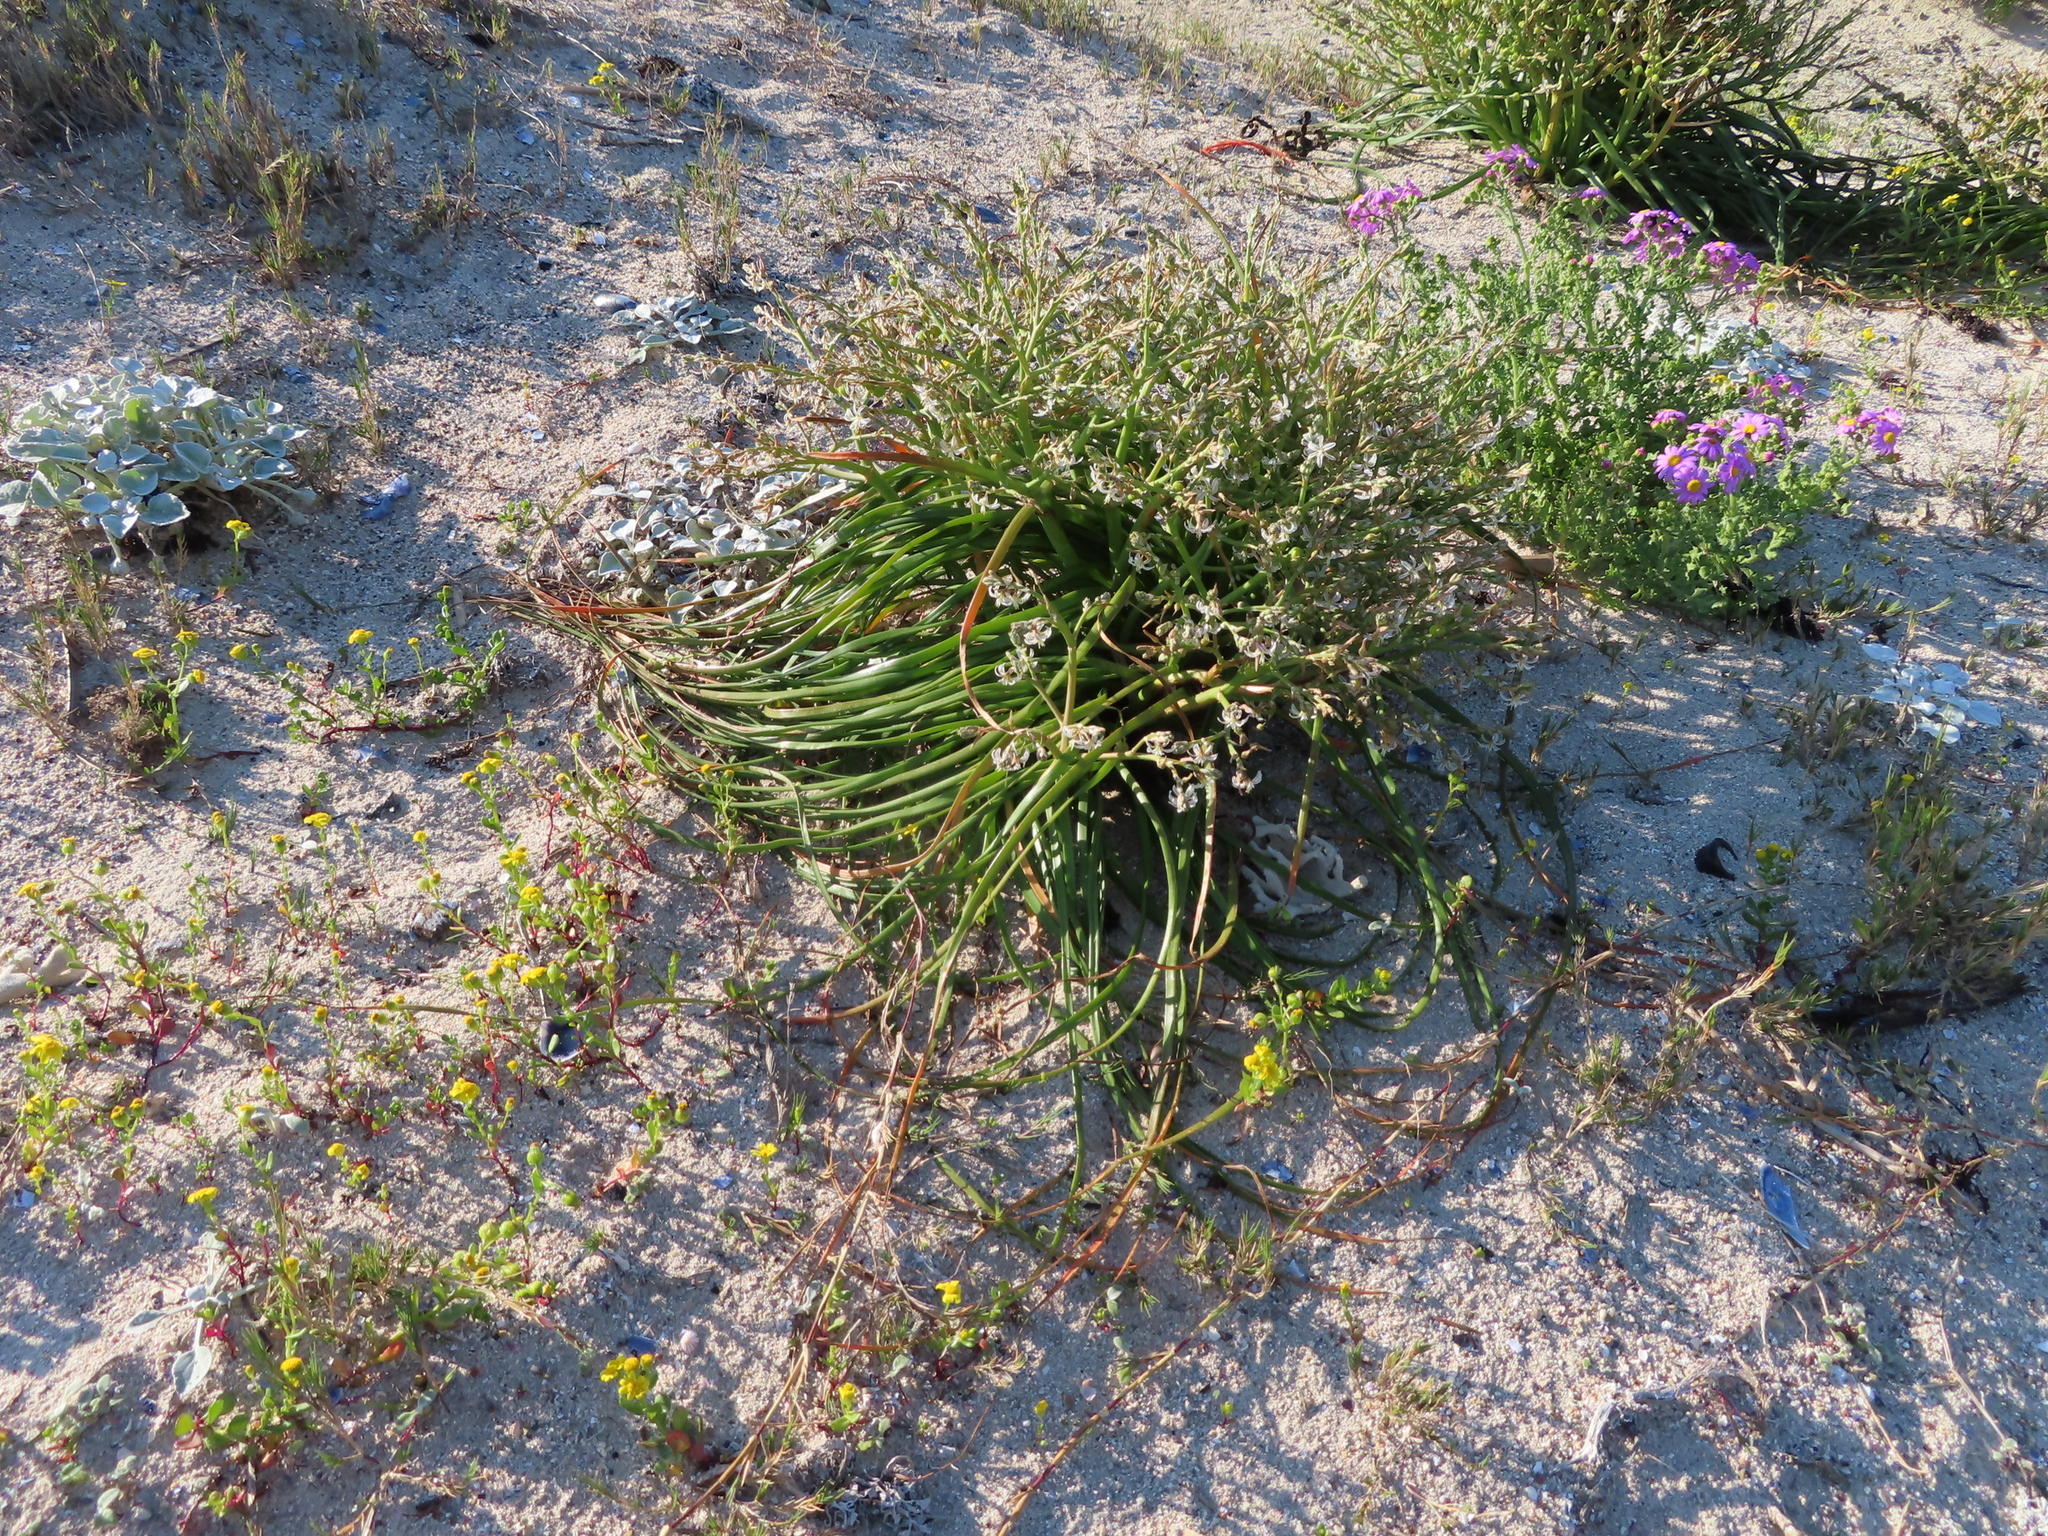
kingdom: Plantae
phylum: Tracheophyta
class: Liliopsida
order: Asparagales
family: Asphodelaceae
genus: Trachyandra
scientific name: Trachyandra divaricata
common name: Dune onionweed
